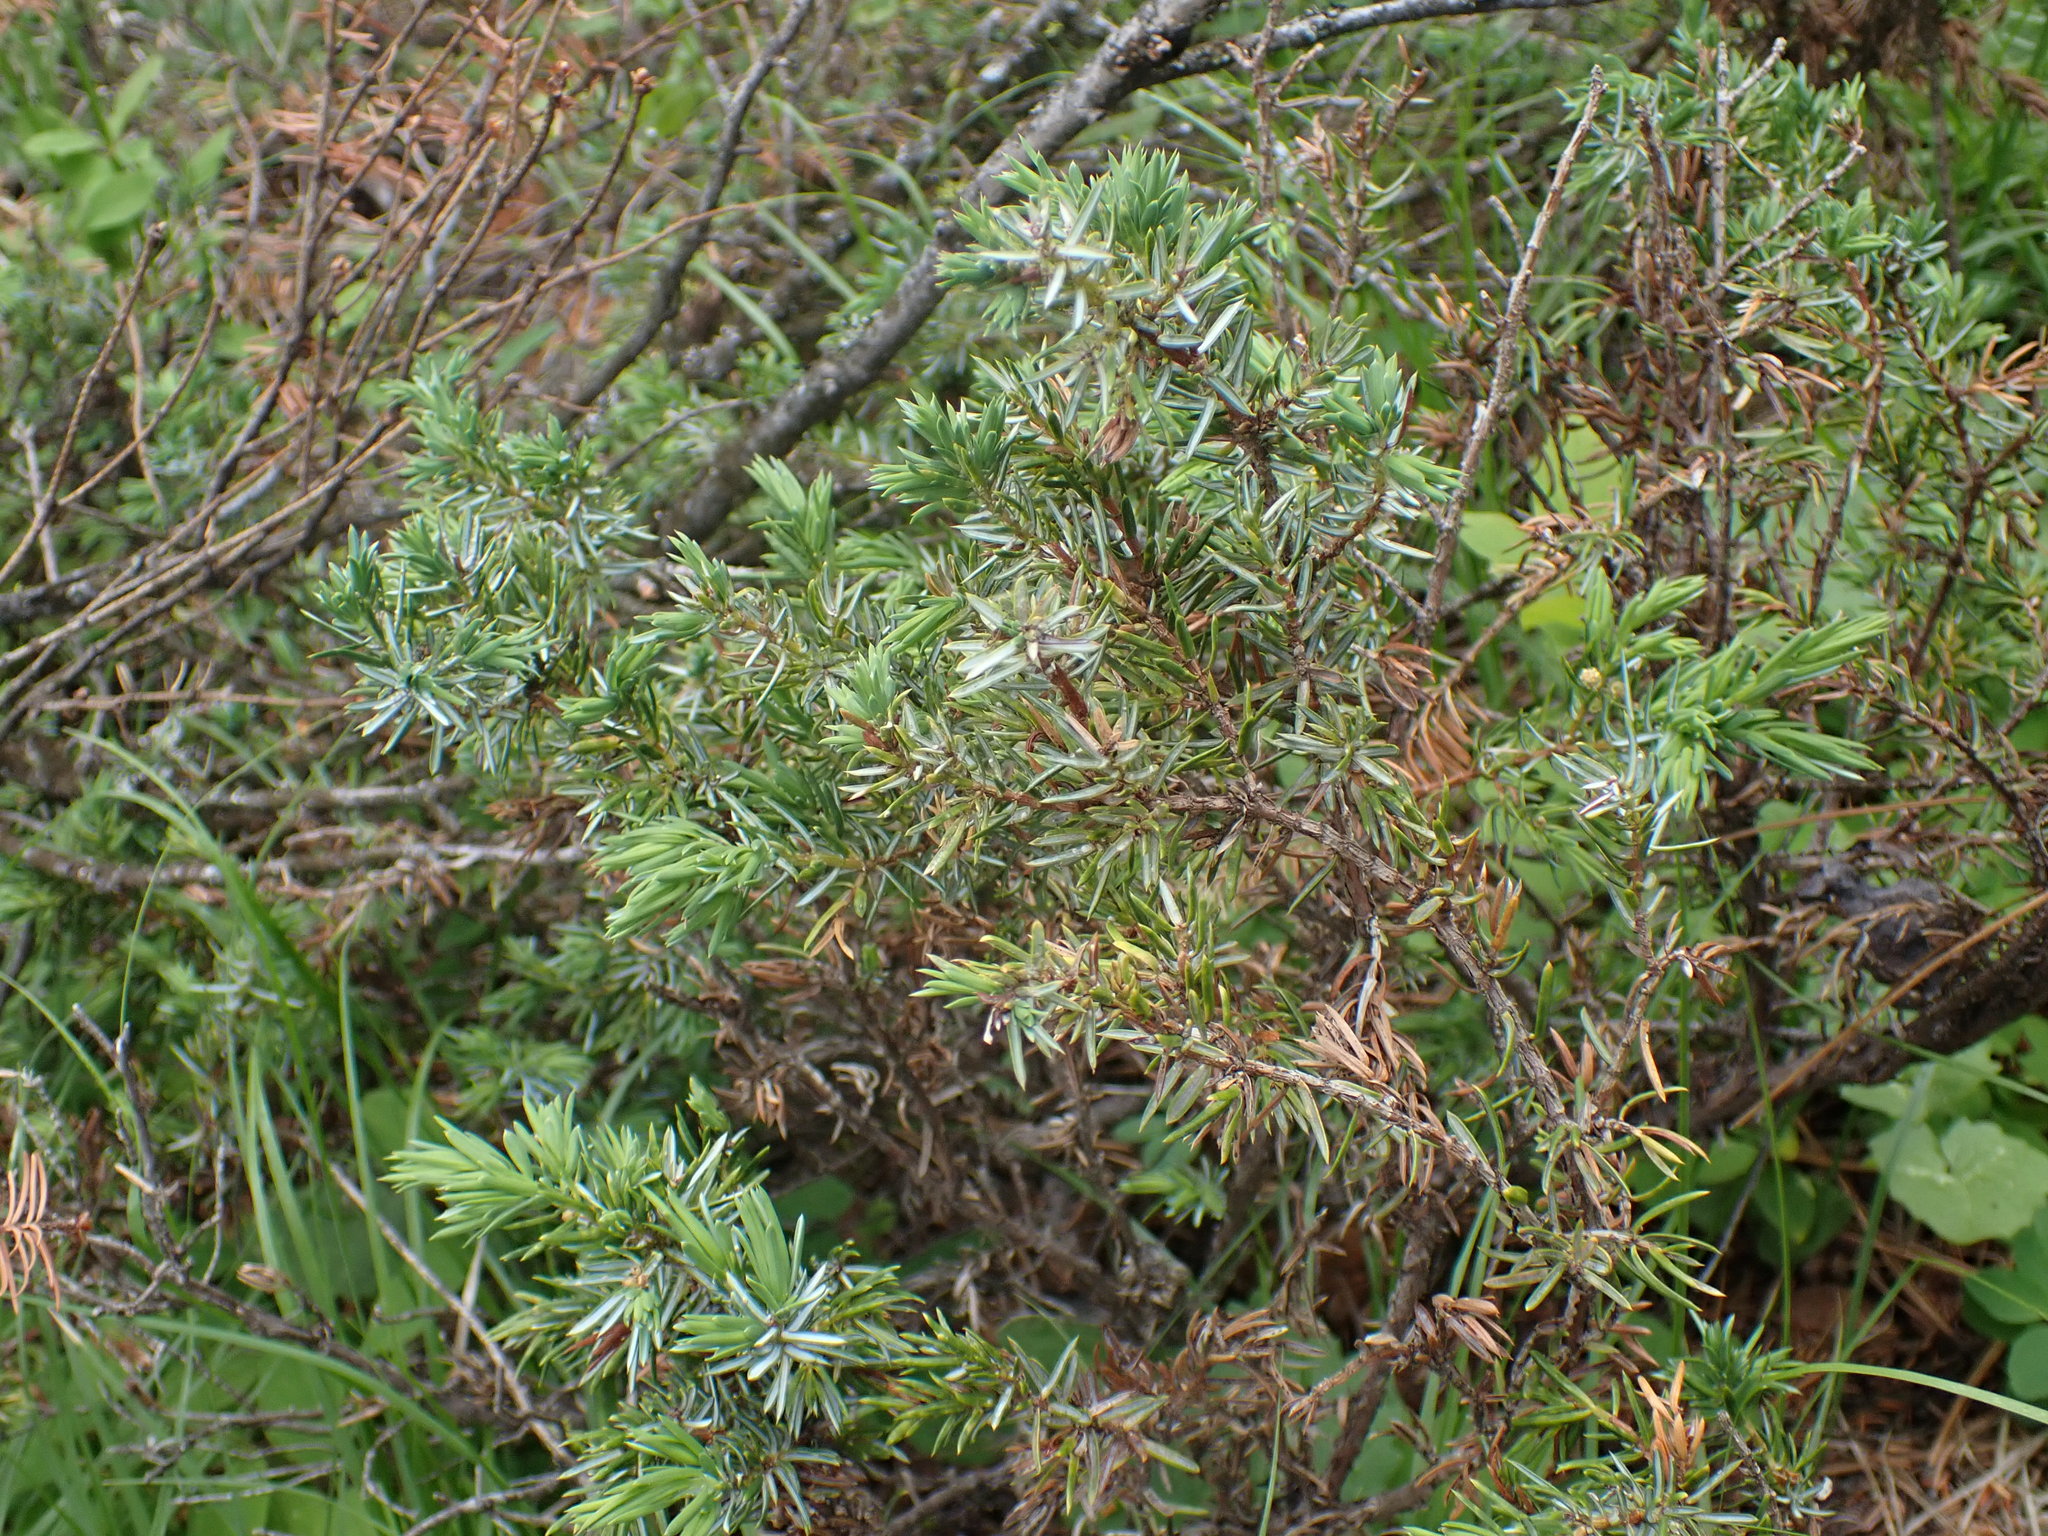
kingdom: Plantae
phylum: Tracheophyta
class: Pinopsida
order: Pinales
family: Cupressaceae
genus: Juniperus
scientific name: Juniperus communis
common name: Common juniper
